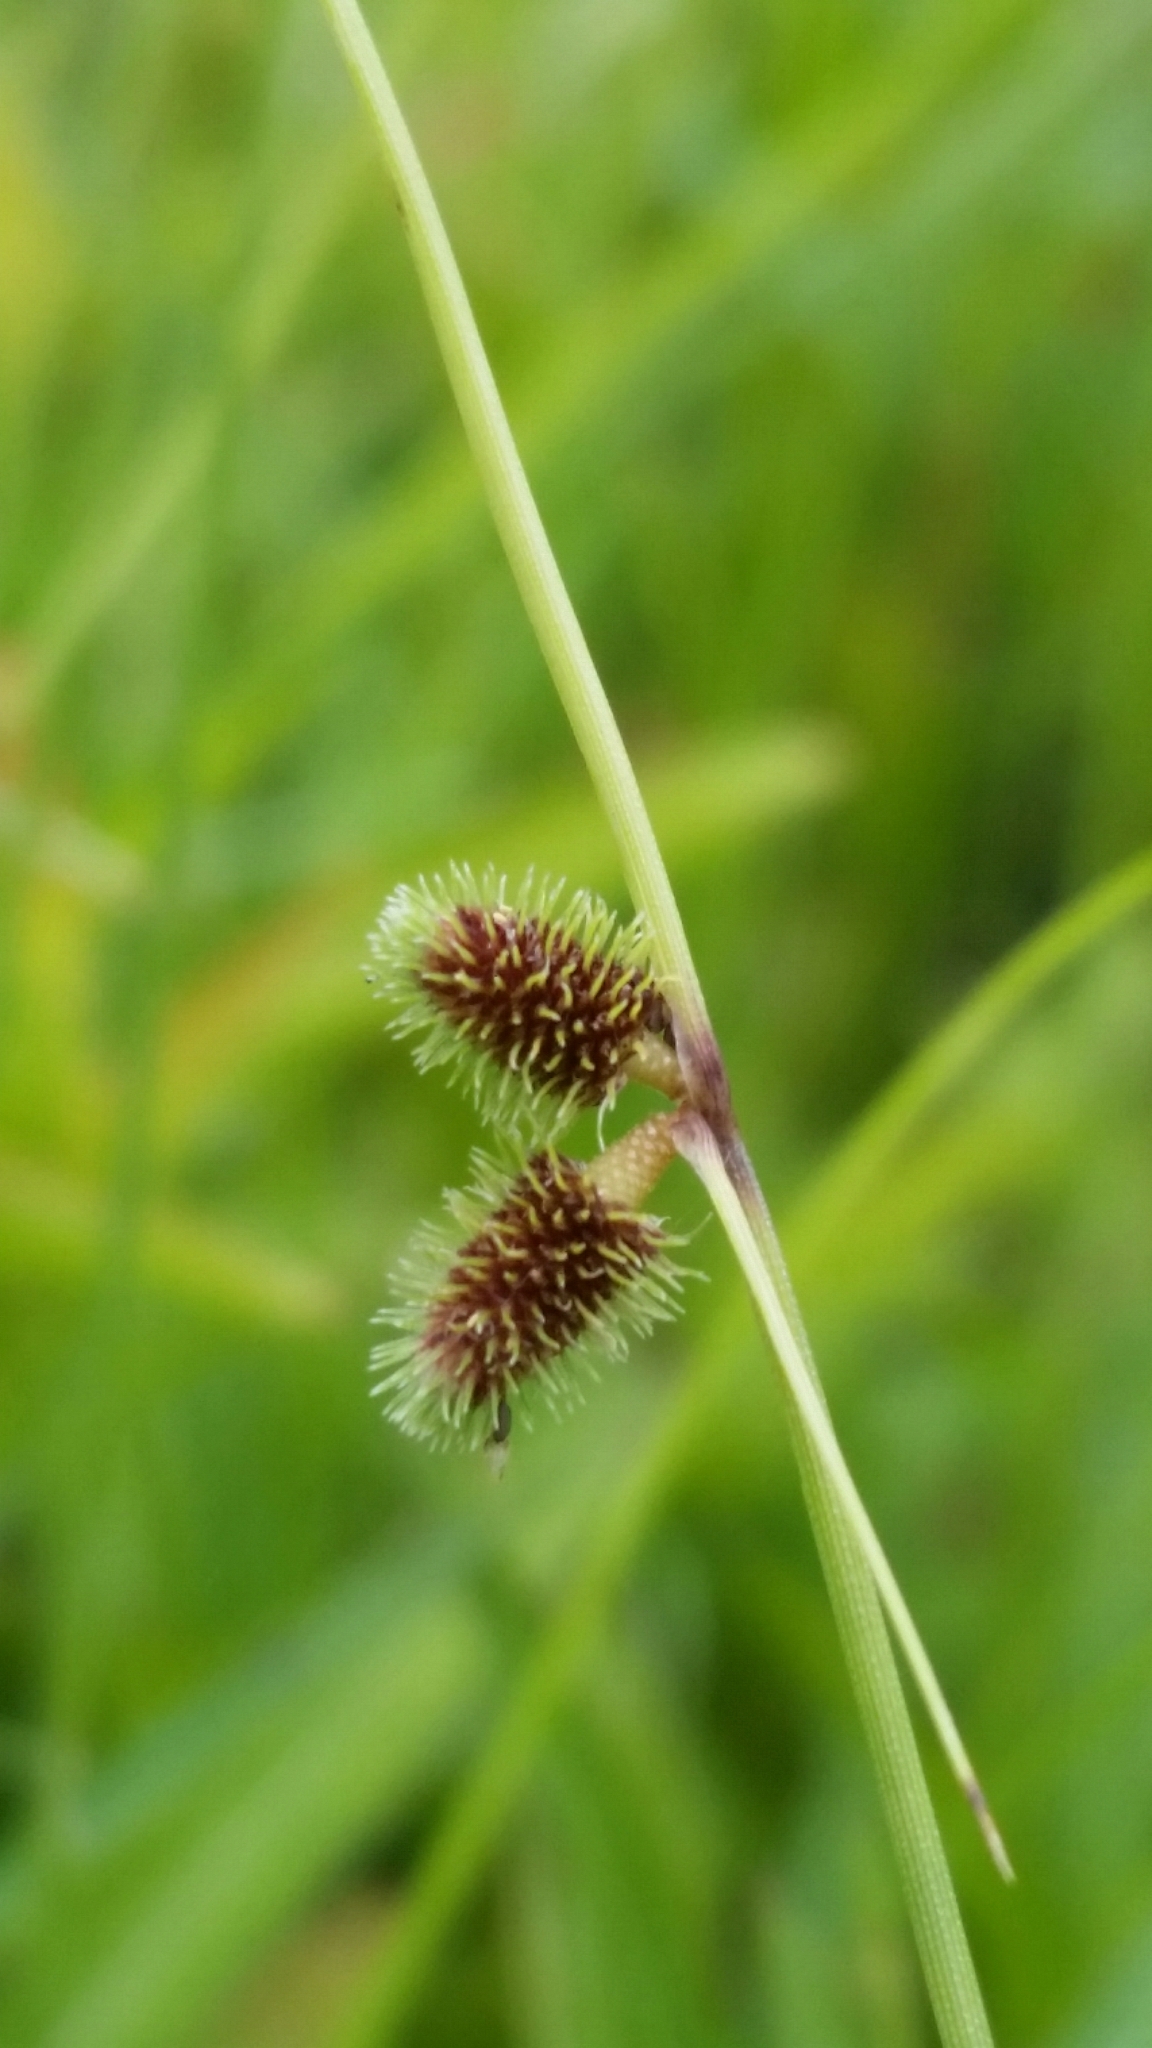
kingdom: Plantae
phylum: Tracheophyta
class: Liliopsida
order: Poales
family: Cyperaceae
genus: Cyperus
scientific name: Cyperus neochinensis
